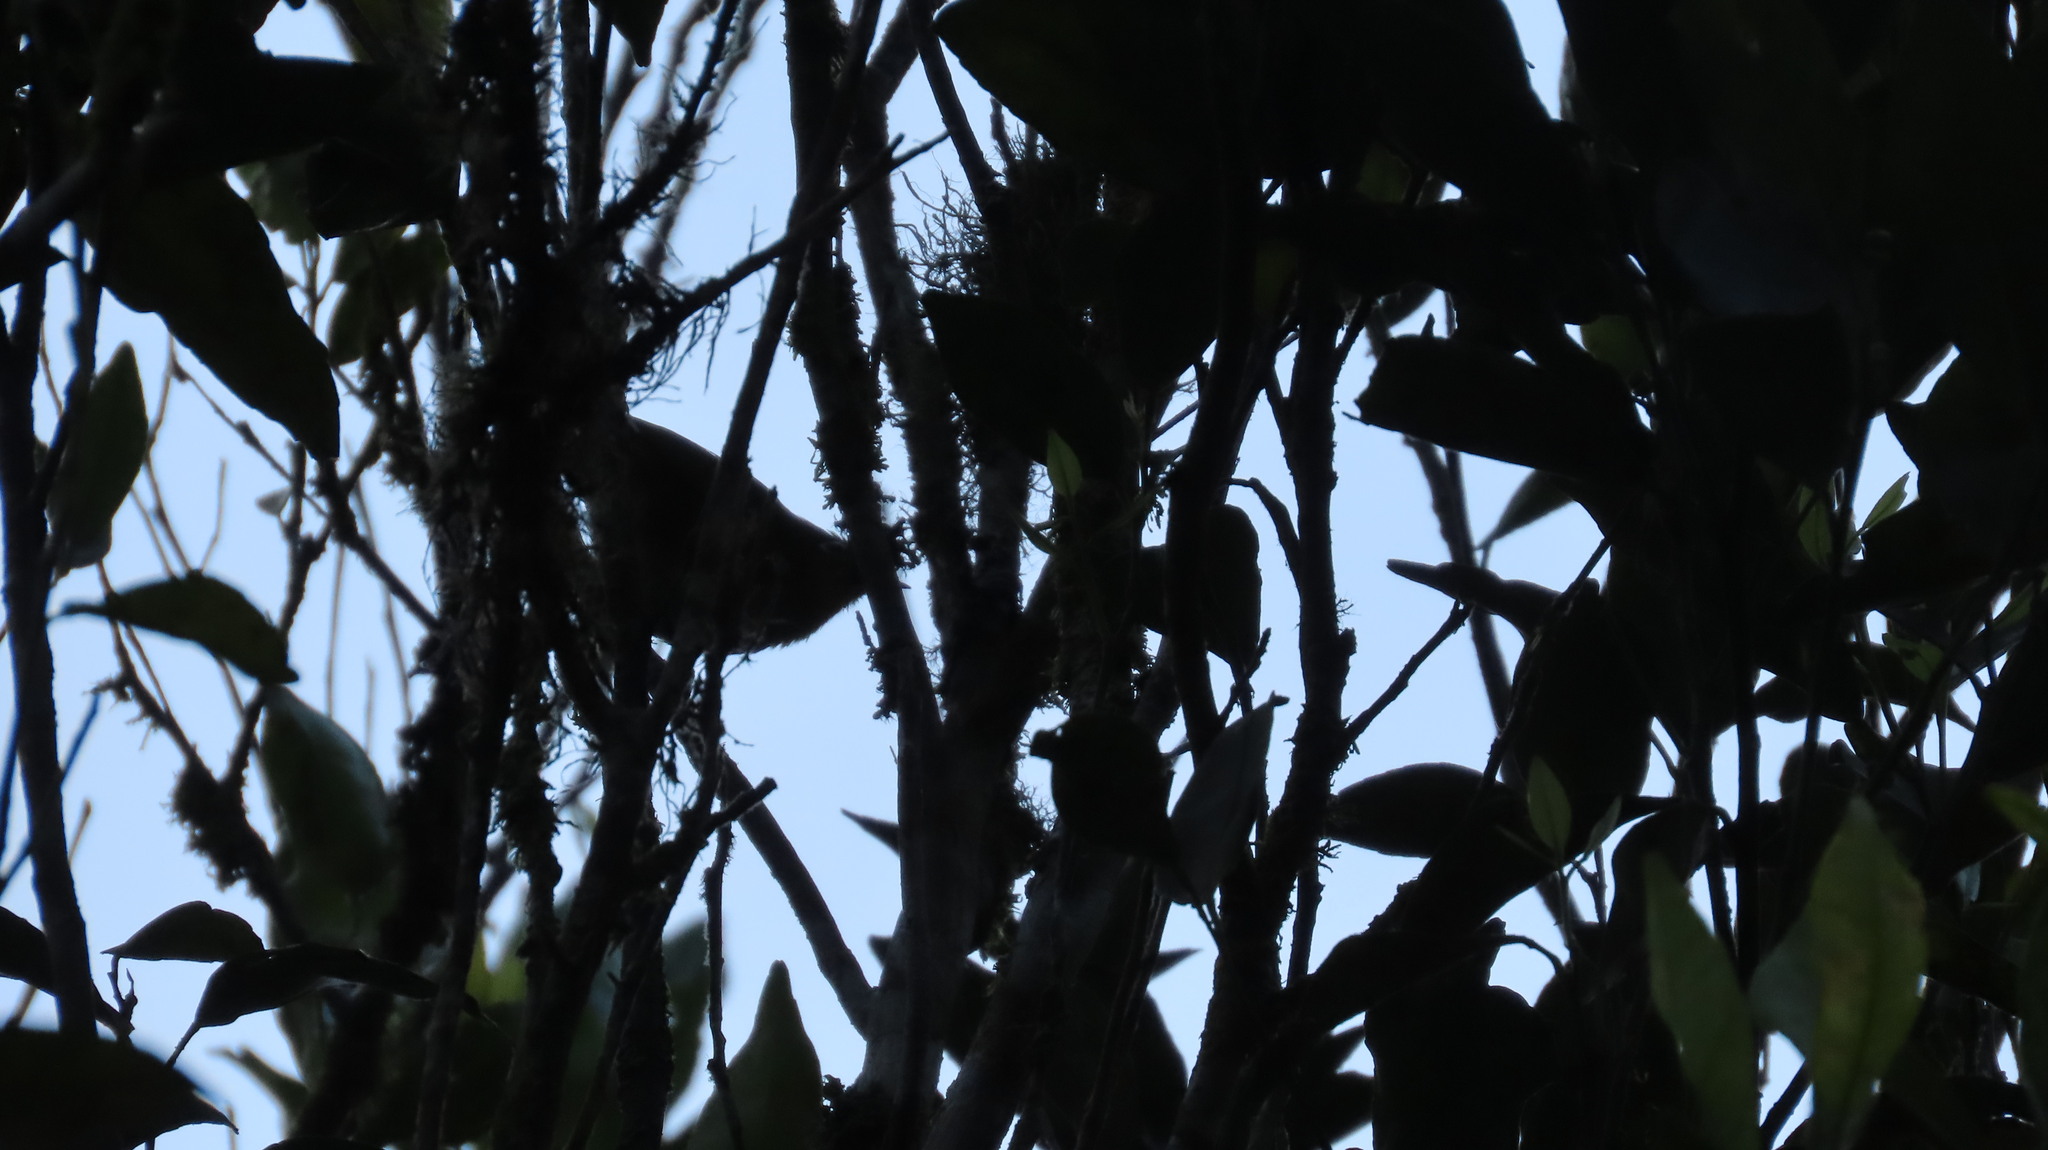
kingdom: Animalia
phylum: Chordata
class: Aves
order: Passeriformes
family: Zosteropidae
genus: Zosterops
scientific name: Zosterops palpebrosus
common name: Oriental white-eye
